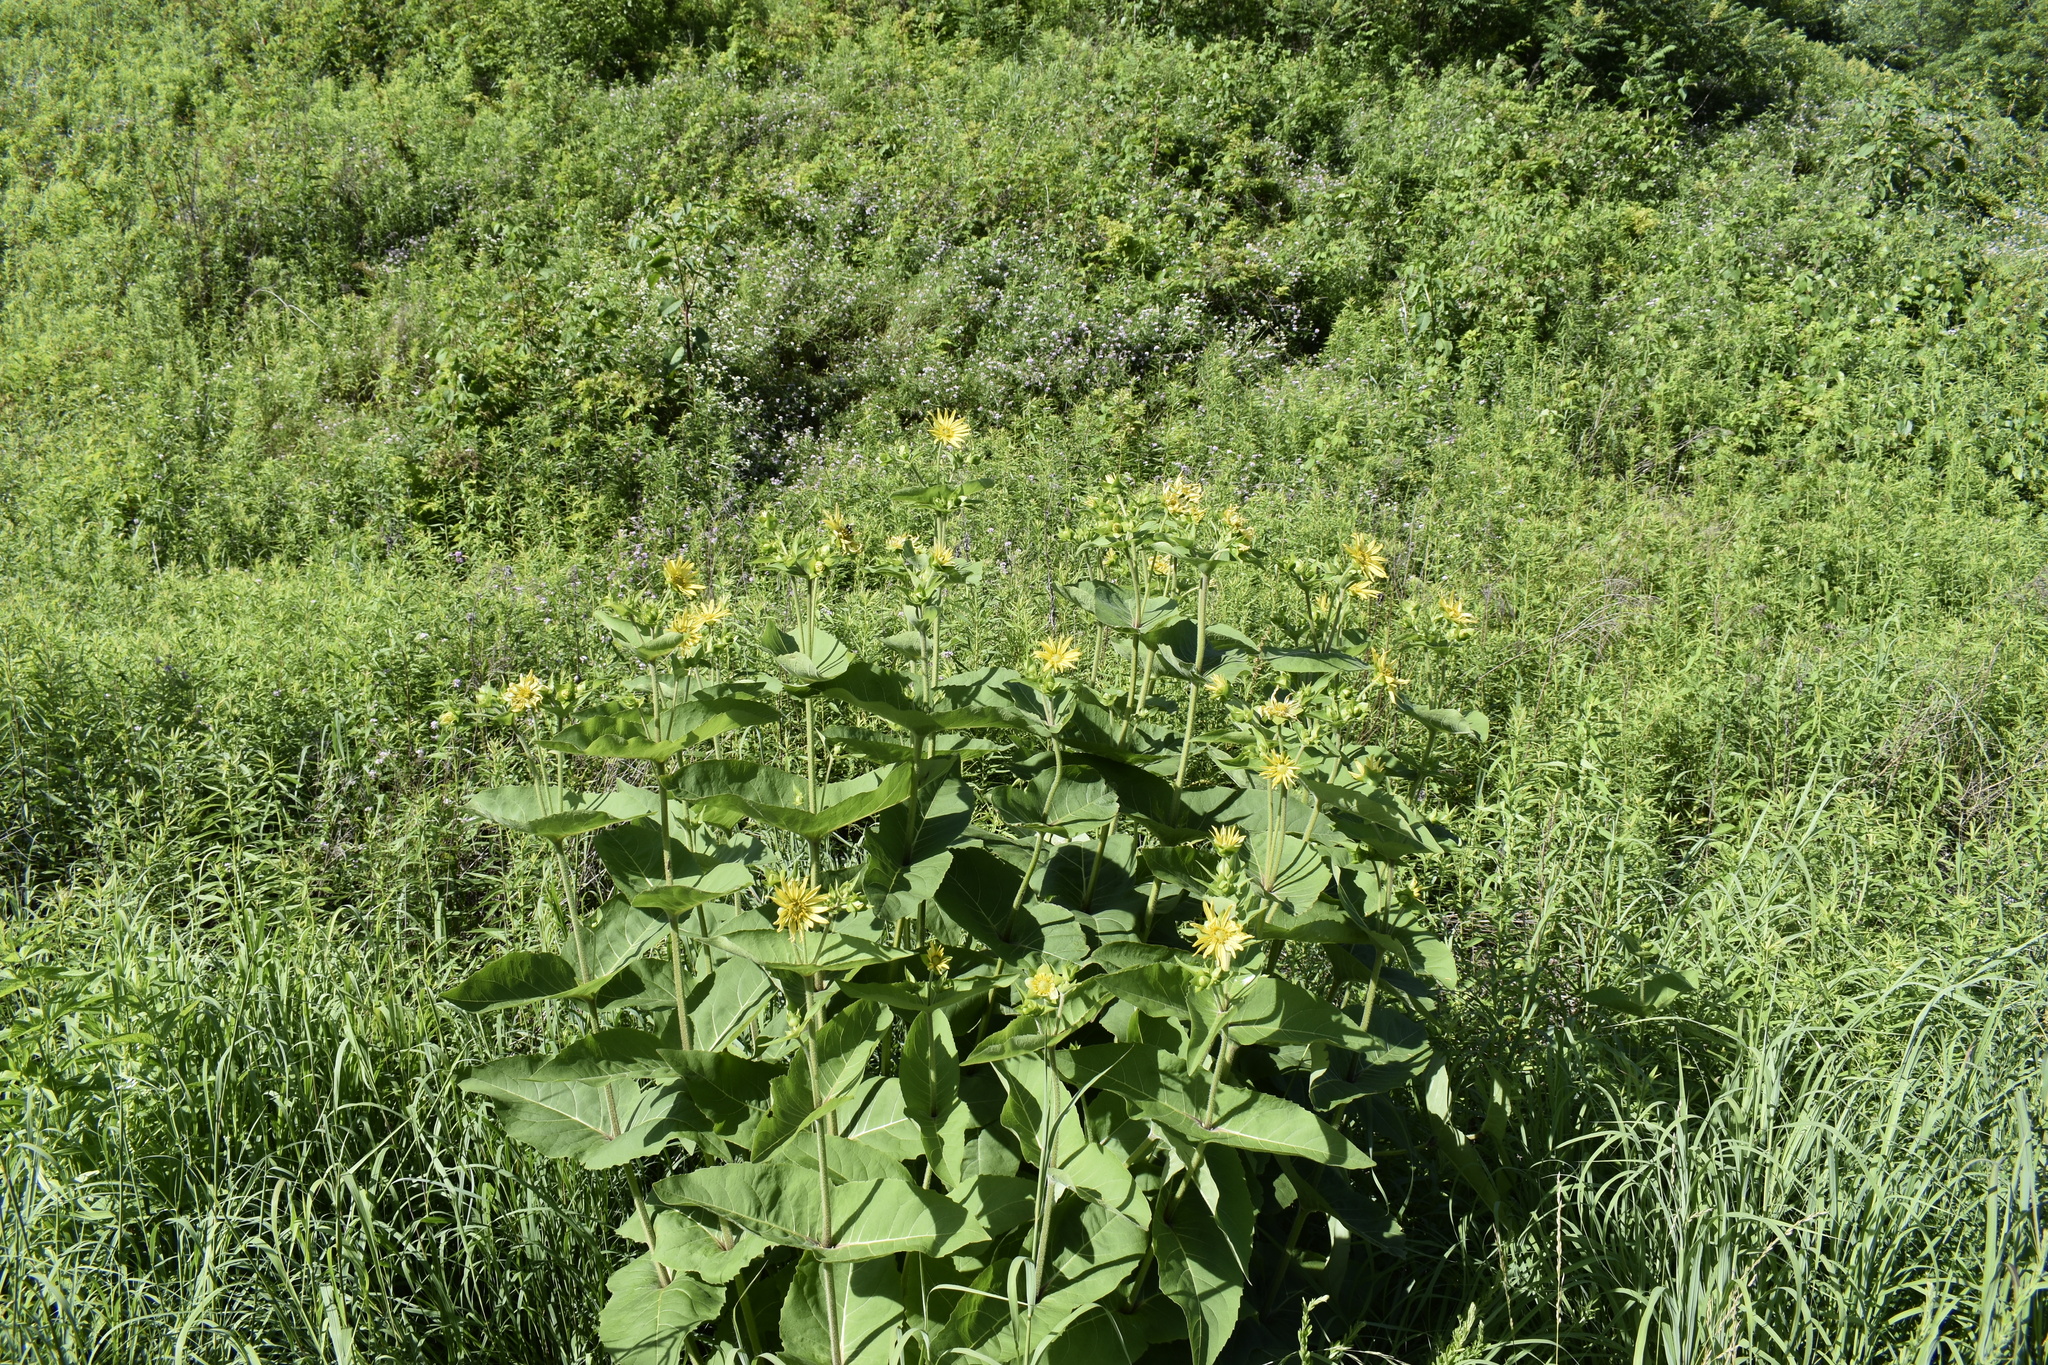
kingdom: Plantae
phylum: Tracheophyta
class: Magnoliopsida
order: Asterales
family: Asteraceae
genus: Silphium
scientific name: Silphium perfoliatum
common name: Cup-plant
